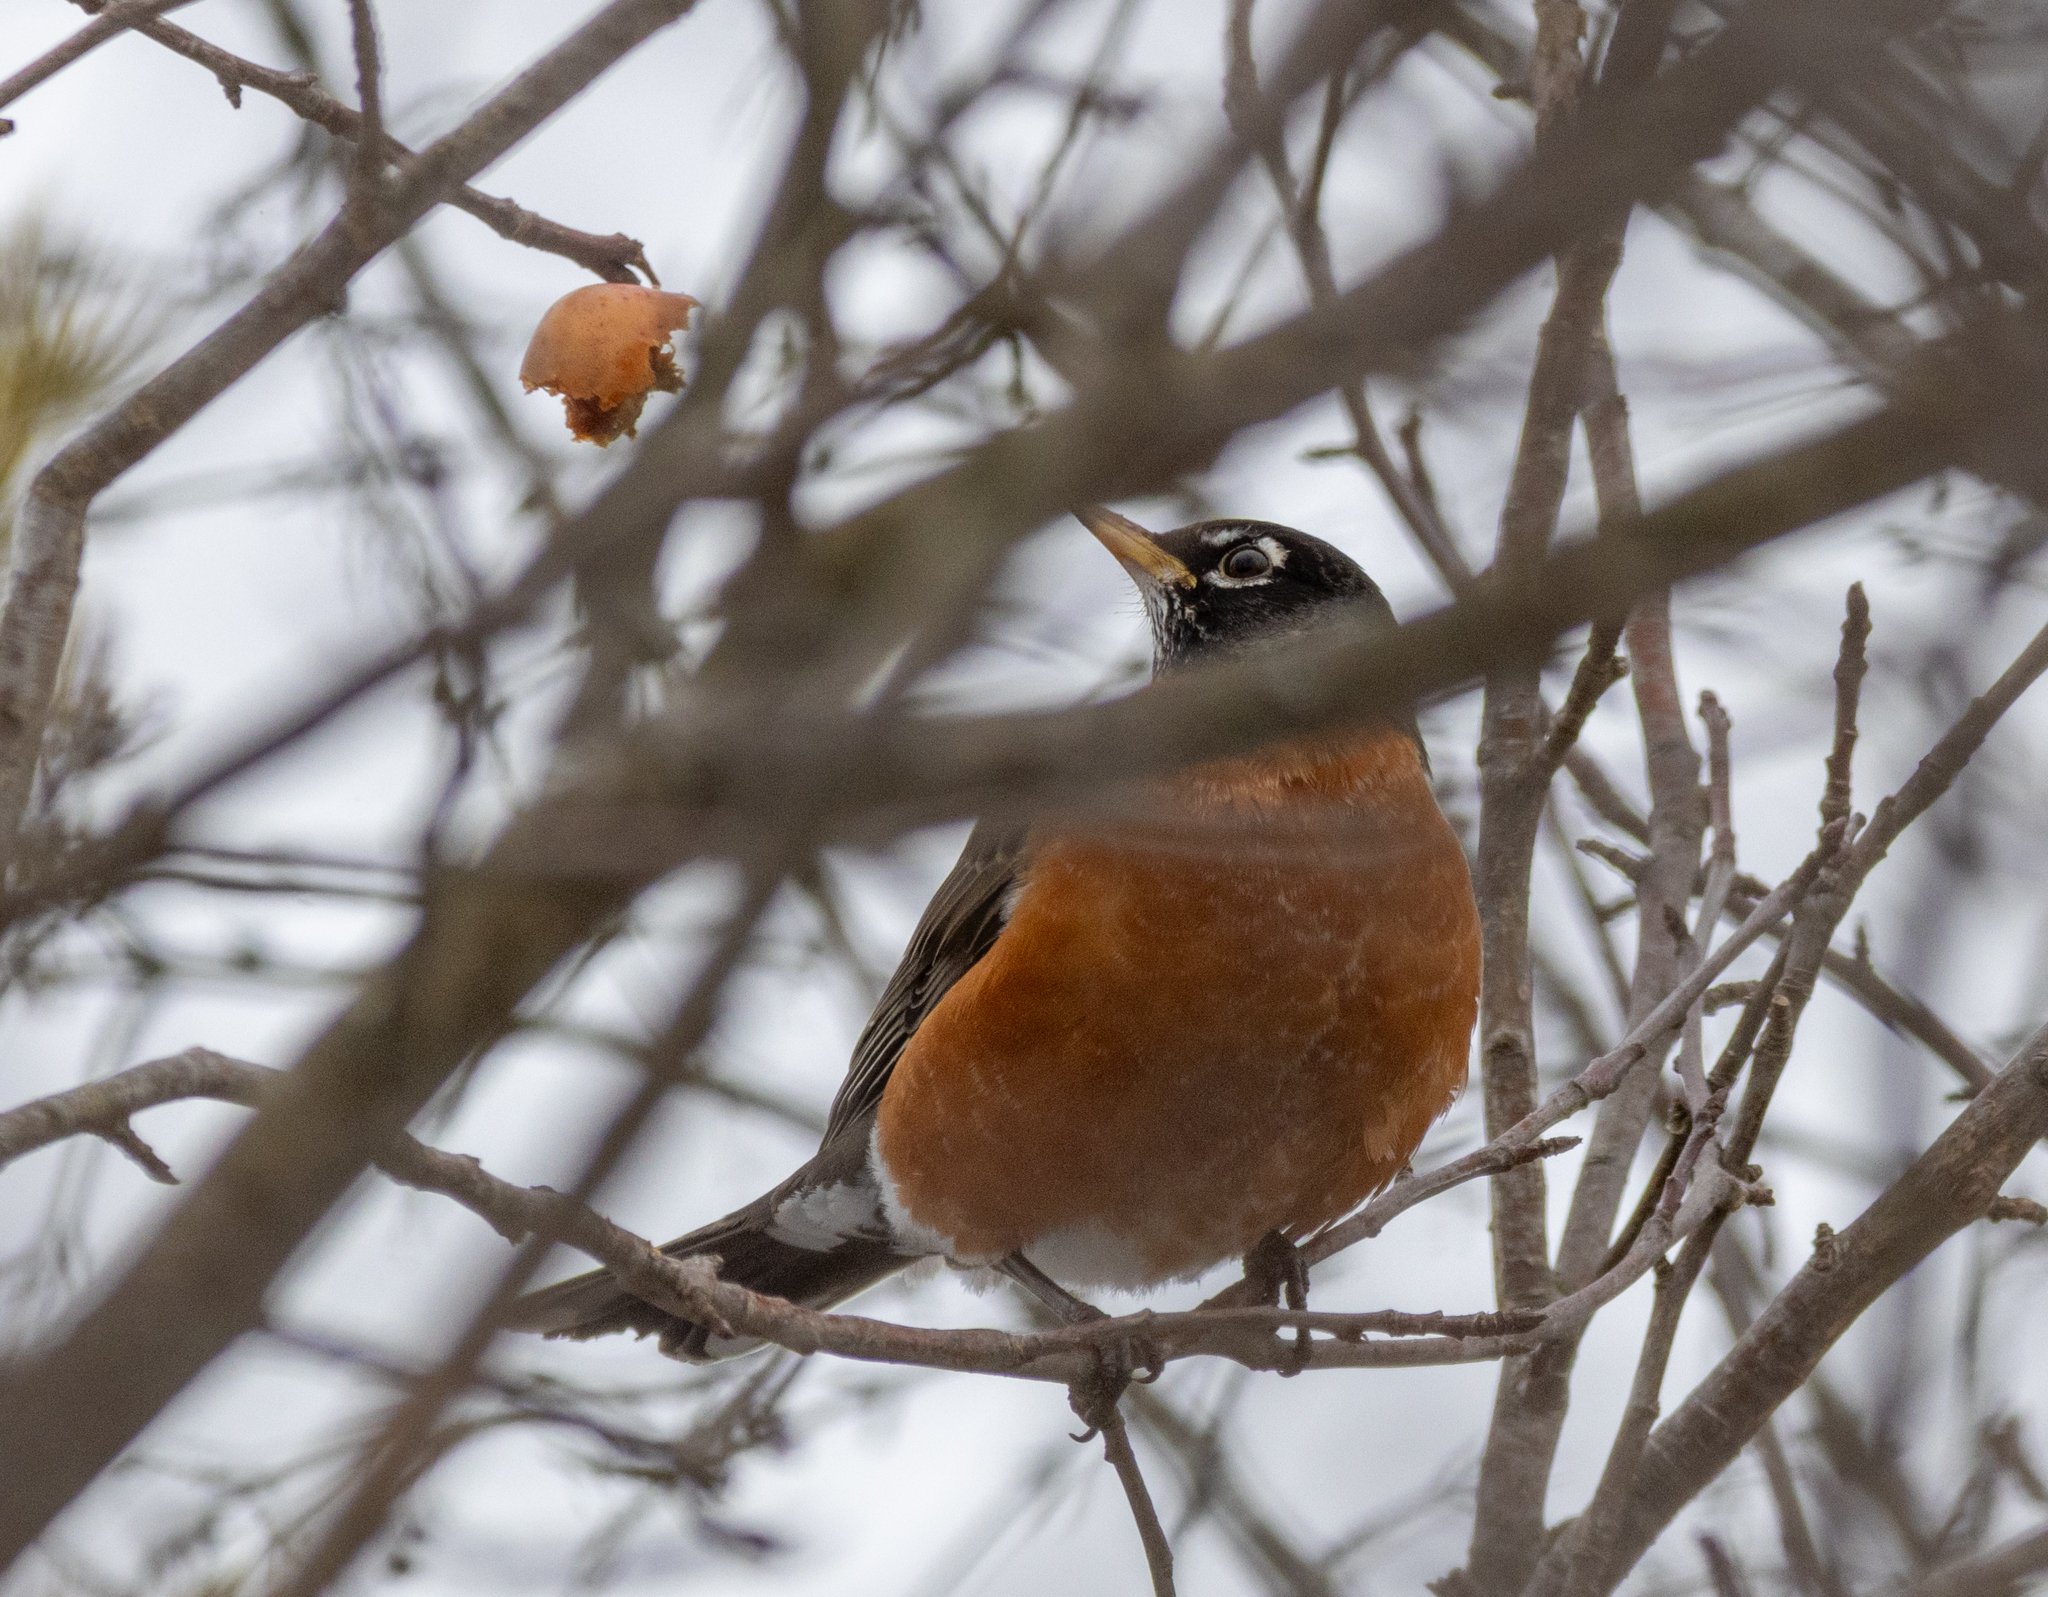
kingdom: Animalia
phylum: Chordata
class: Aves
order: Passeriformes
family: Turdidae
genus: Turdus
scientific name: Turdus migratorius
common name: American robin
